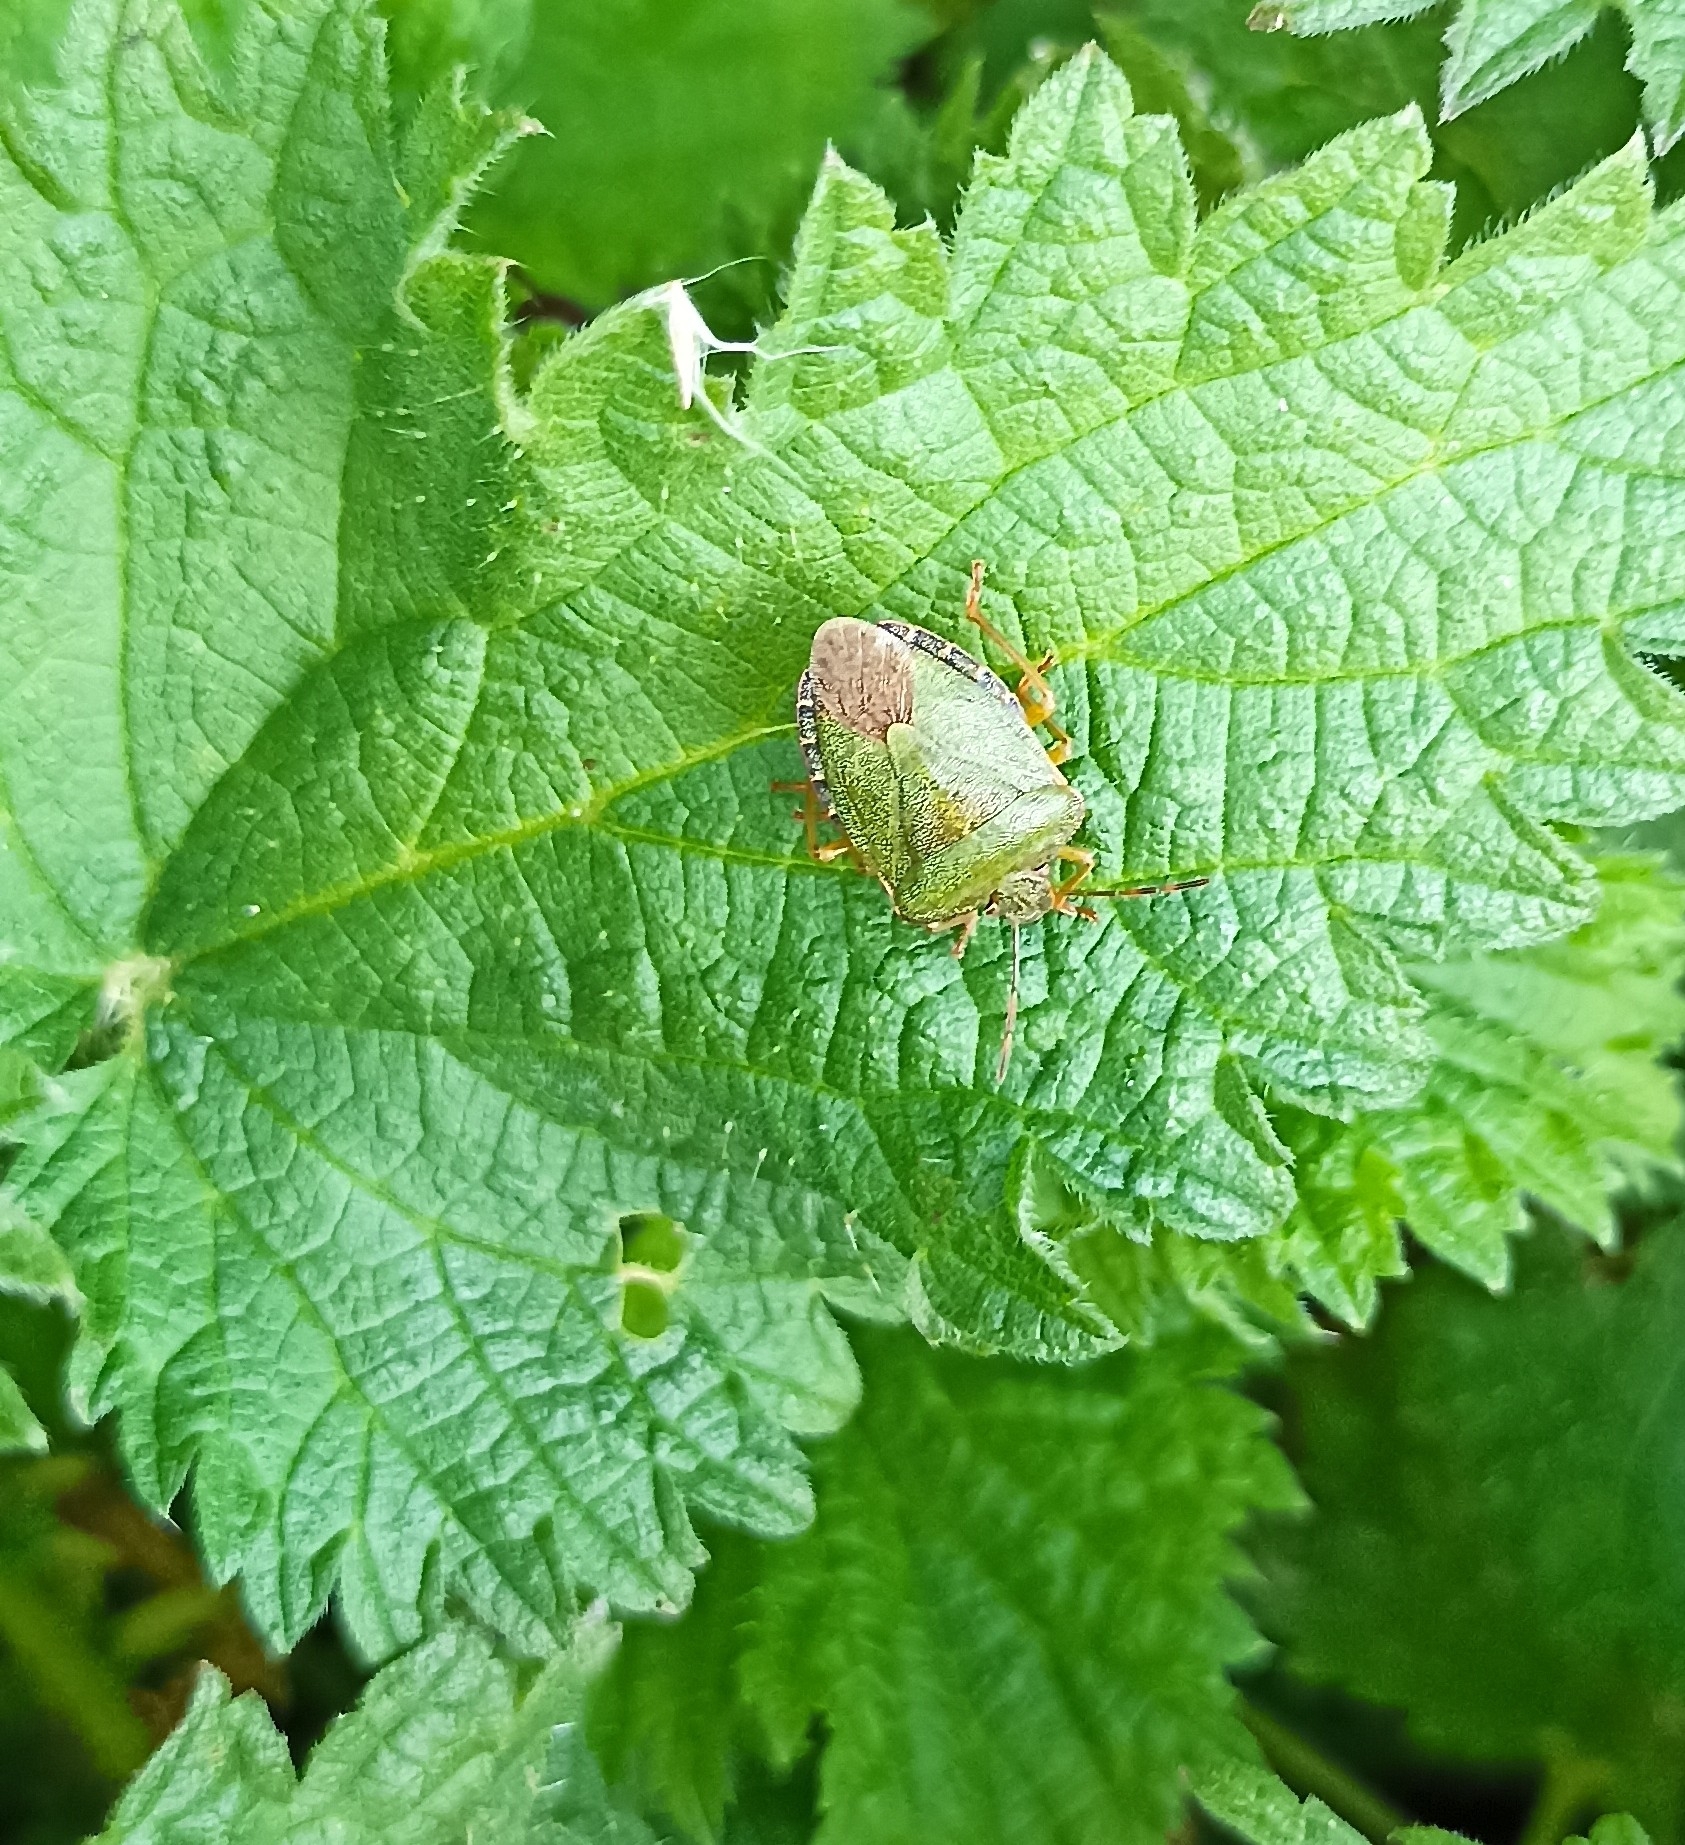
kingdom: Animalia
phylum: Arthropoda
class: Insecta
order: Hemiptera
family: Pentatomidae
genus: Palomena
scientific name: Palomena prasina
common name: Green shieldbug
